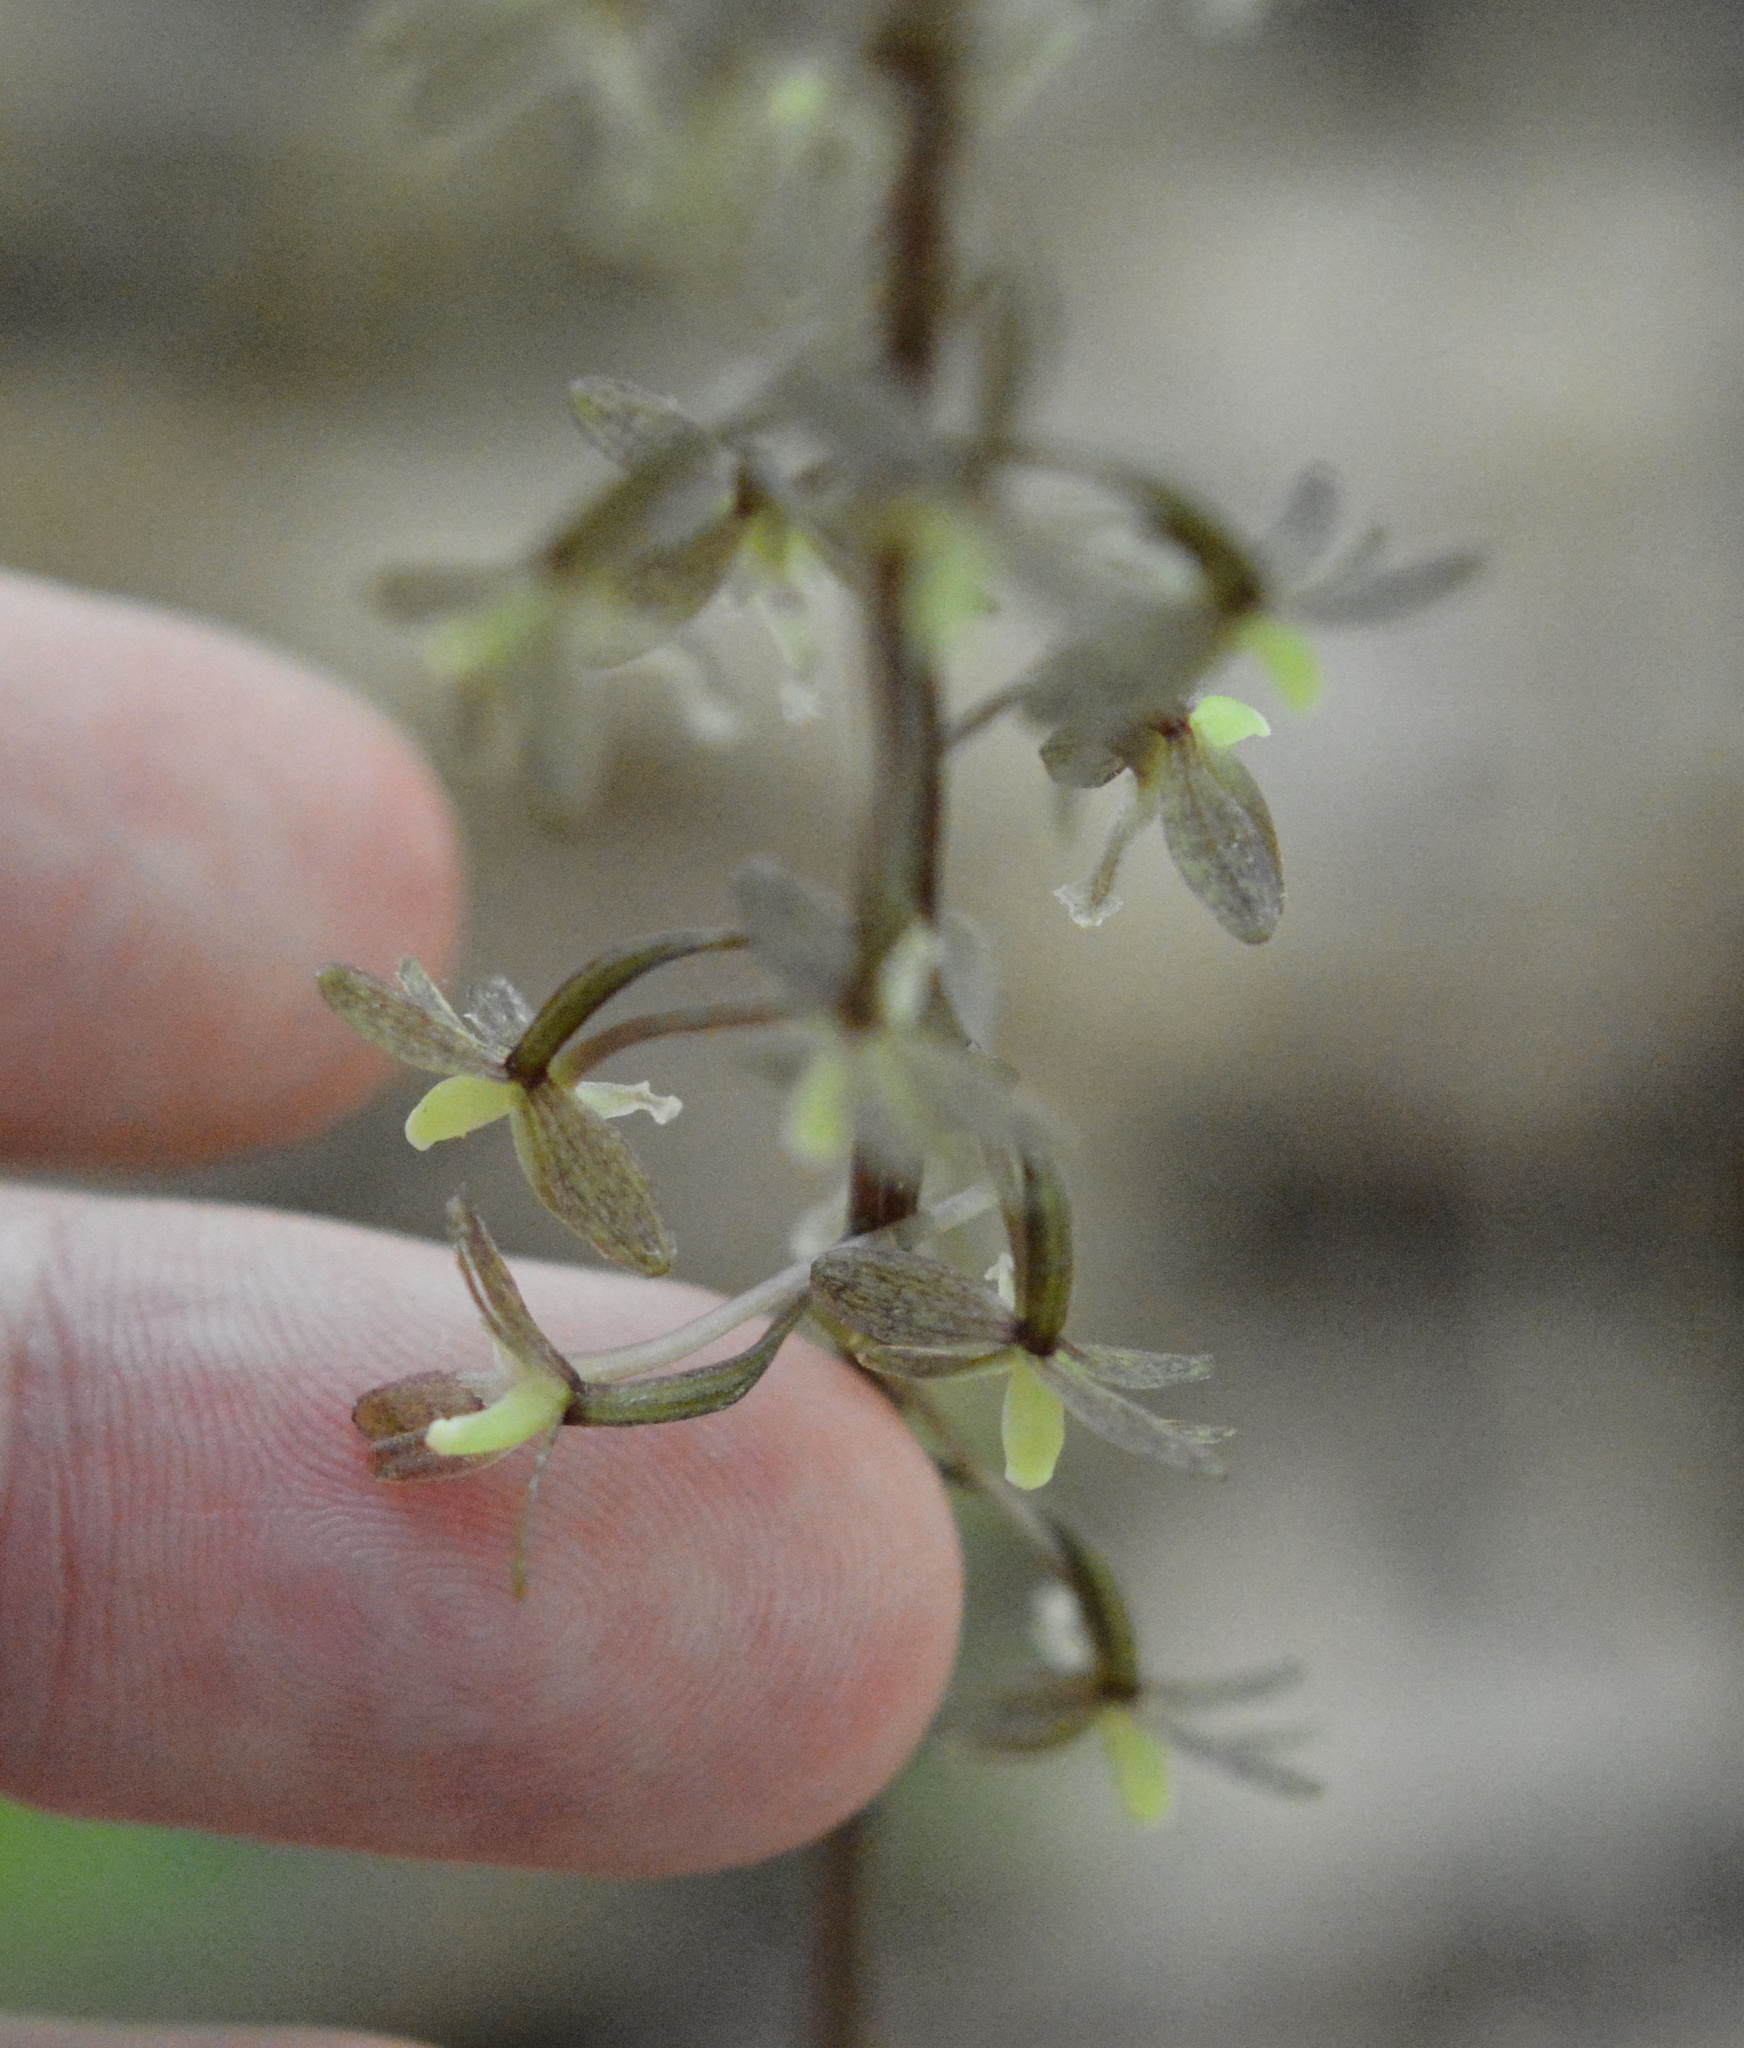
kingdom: Plantae
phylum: Tracheophyta
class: Liliopsida
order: Asparagales
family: Orchidaceae
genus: Tipularia
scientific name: Tipularia discolor
